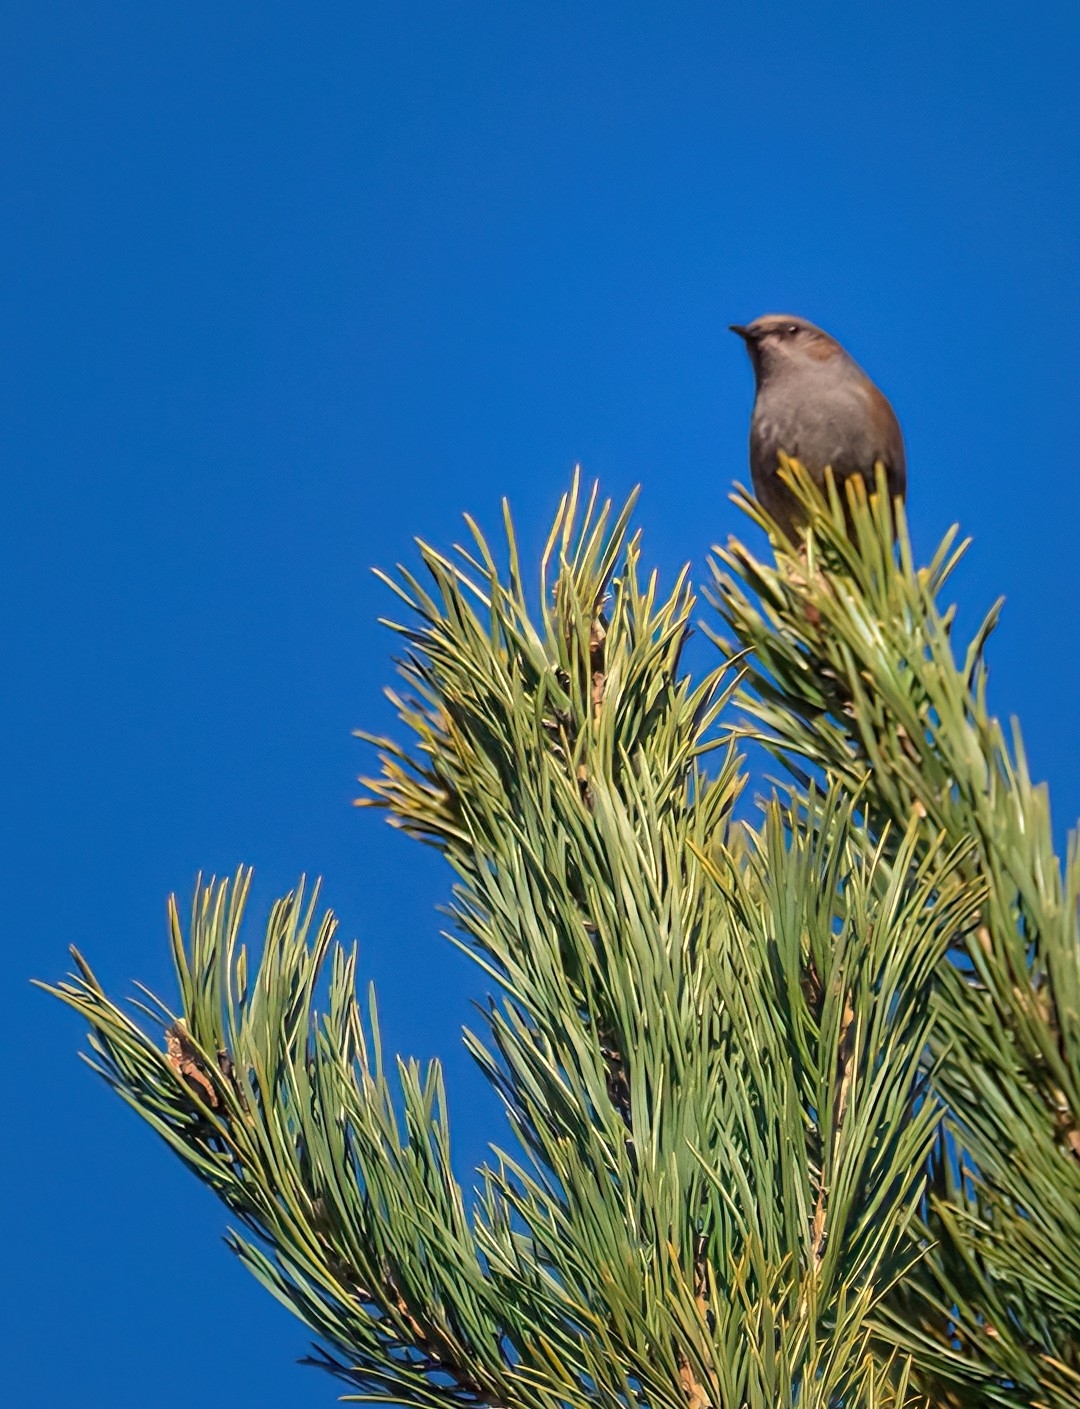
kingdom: Animalia
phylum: Chordata
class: Aves
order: Passeriformes
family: Prunellidae
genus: Prunella
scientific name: Prunella modularis
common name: Dunnock
